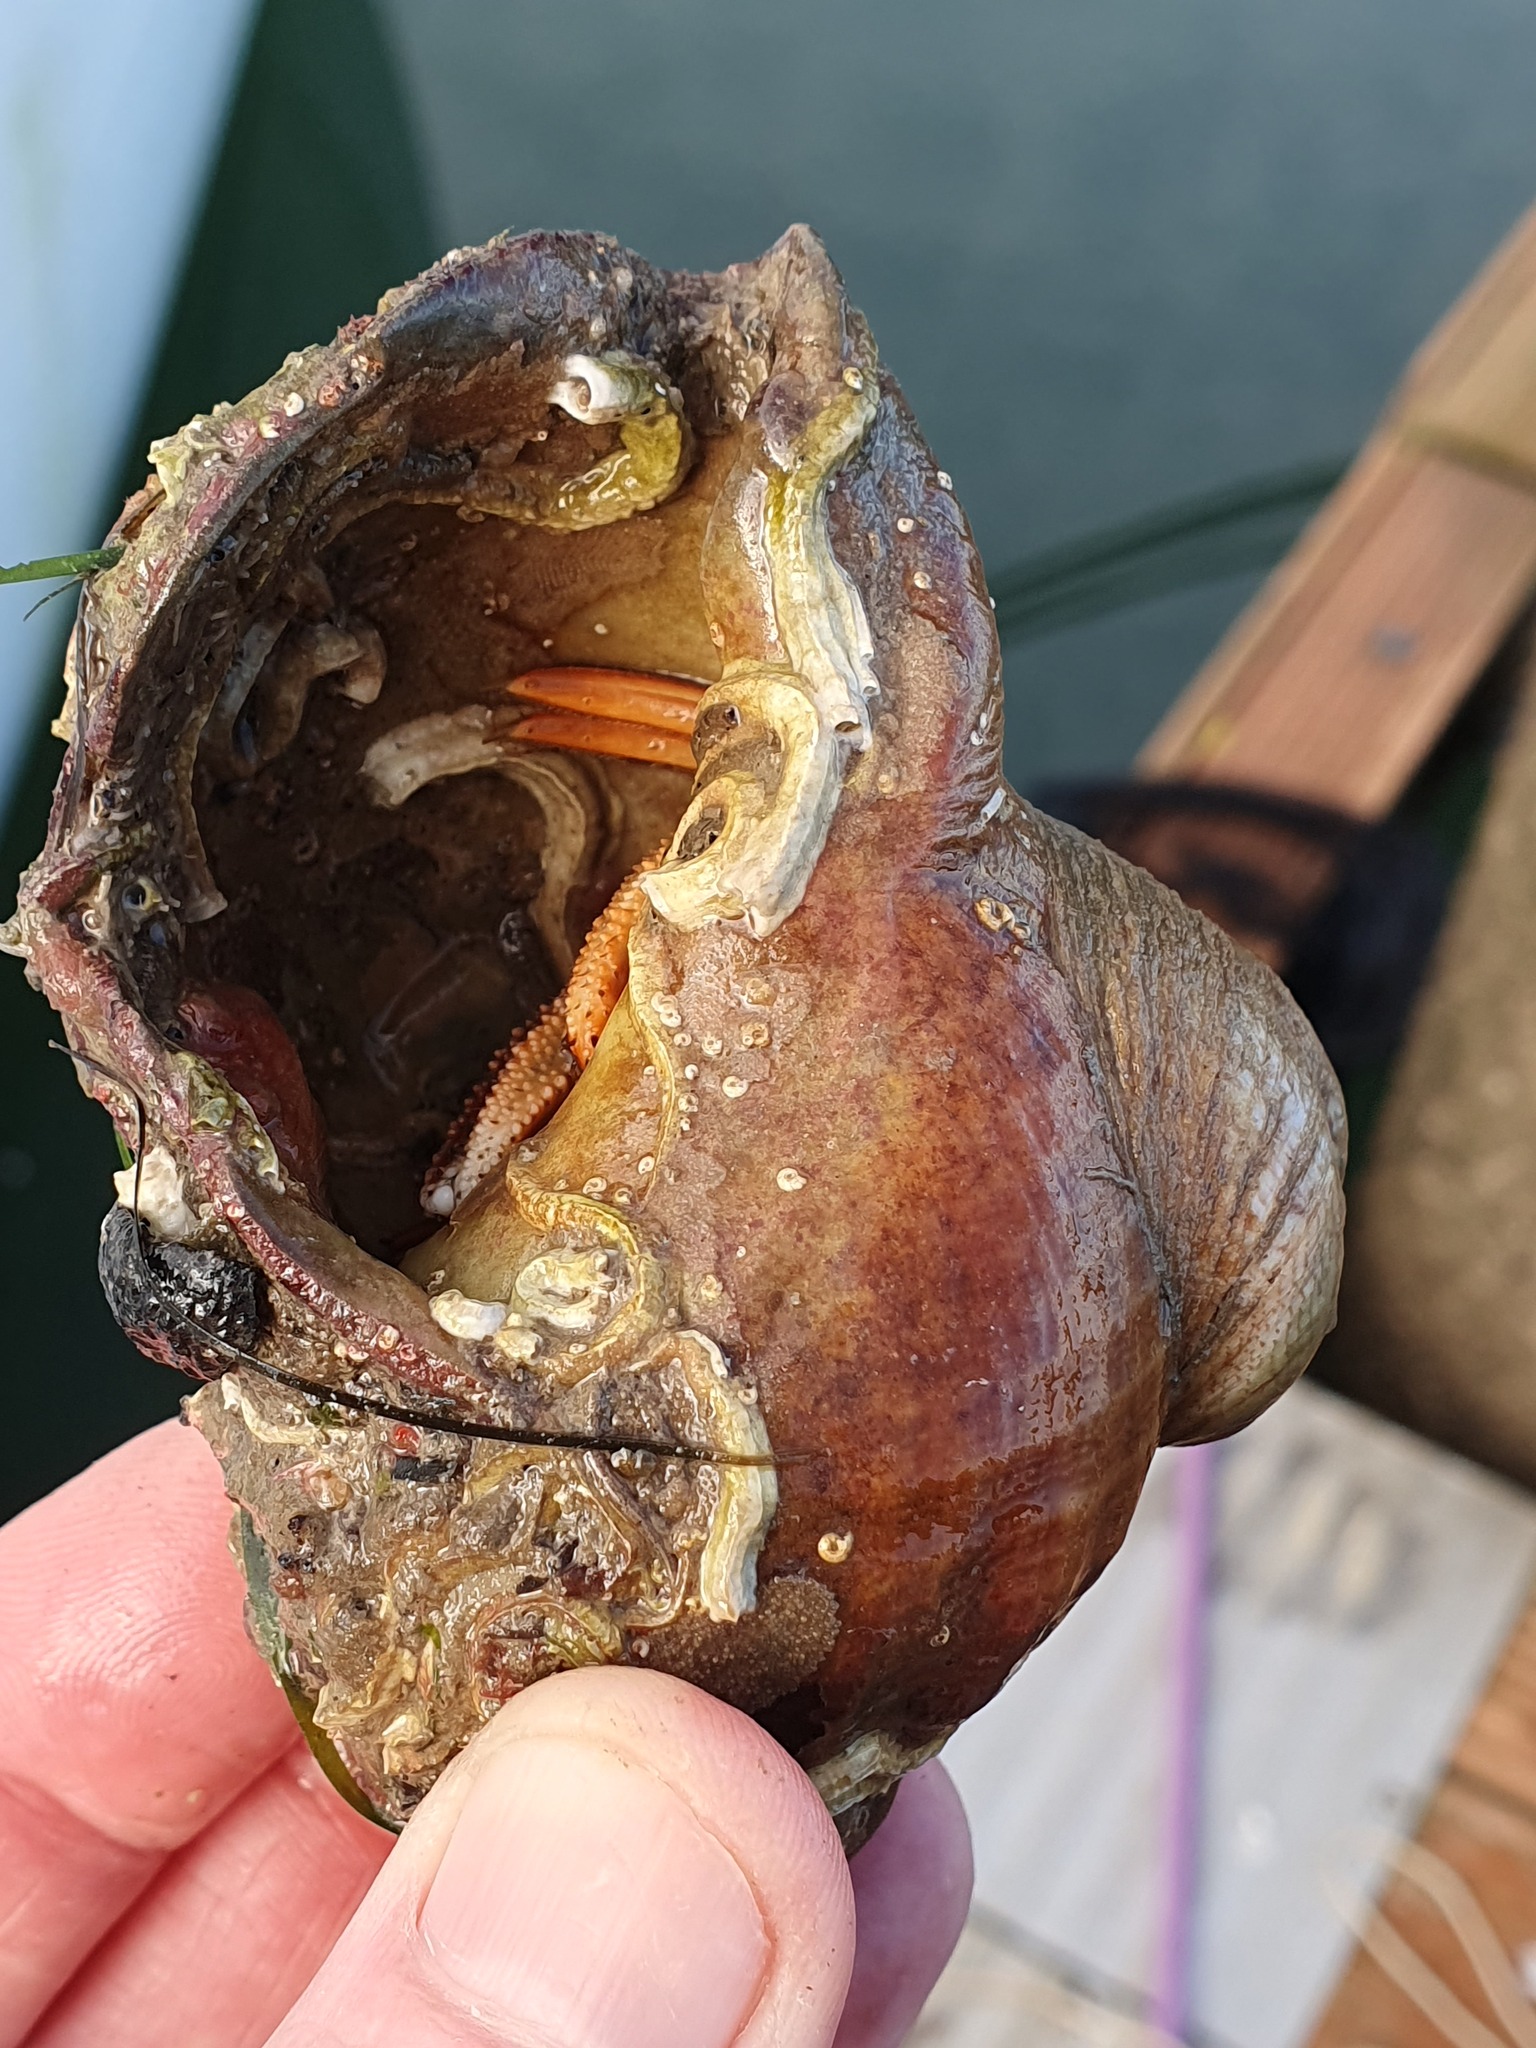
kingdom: Animalia
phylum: Mollusca
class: Gastropoda
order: Littorinimorpha
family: Calyptraeidae
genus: Crepidula
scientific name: Crepidula fornicata
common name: Slipper limpet
